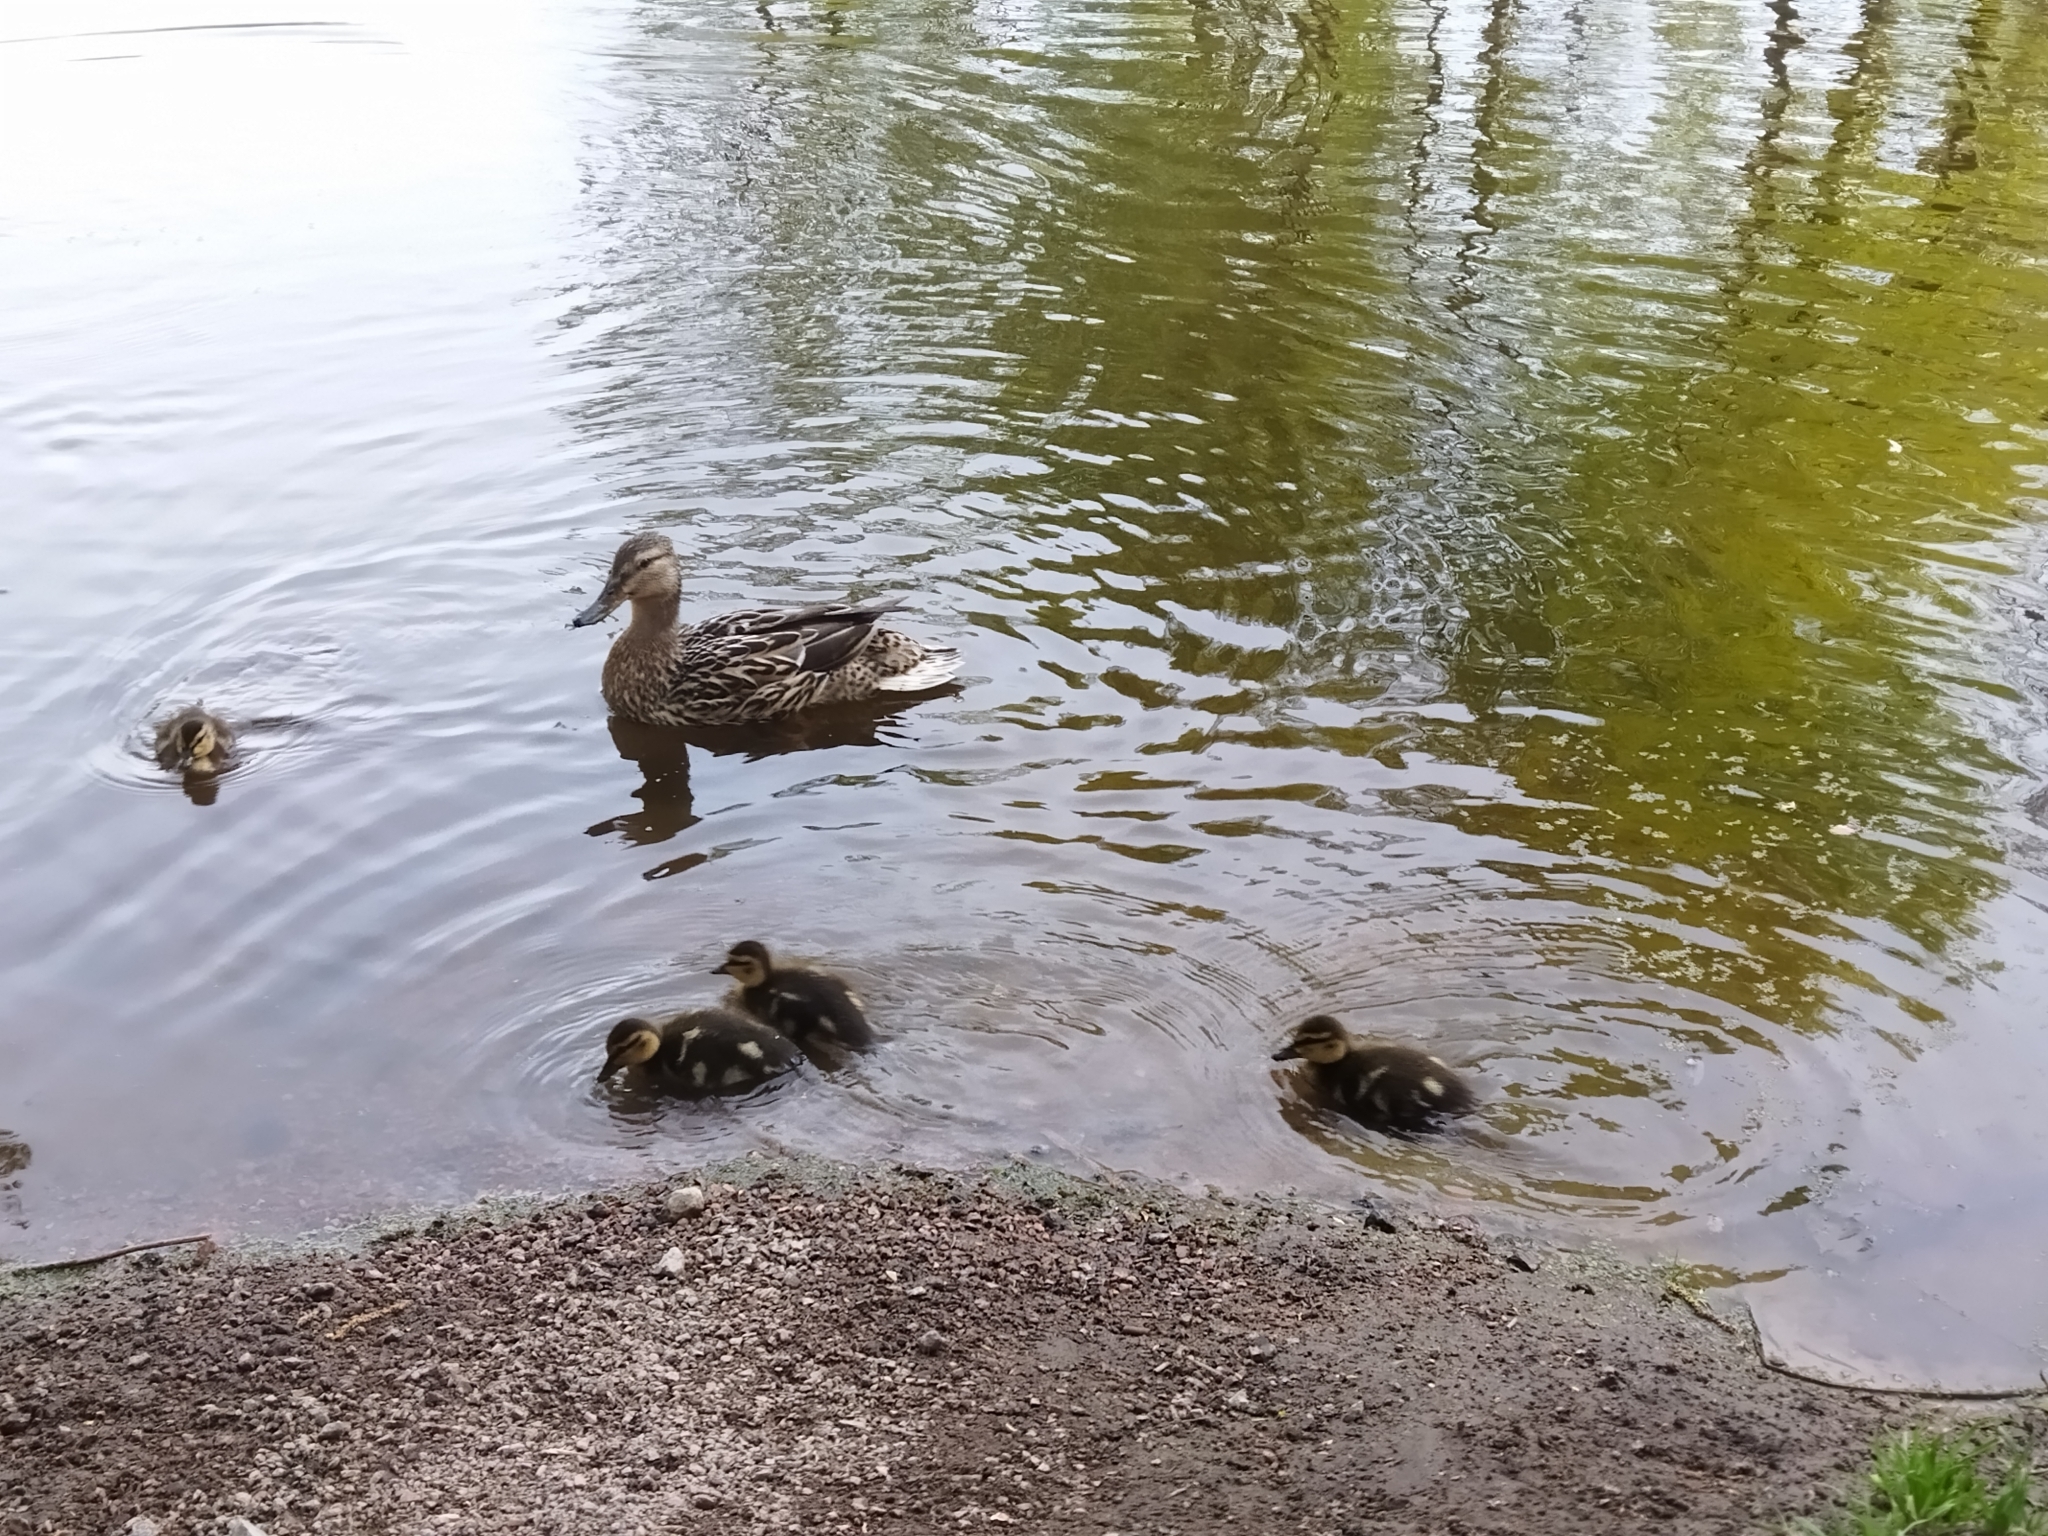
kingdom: Animalia
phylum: Chordata
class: Aves
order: Anseriformes
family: Anatidae
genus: Anas
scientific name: Anas platyrhynchos
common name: Mallard
